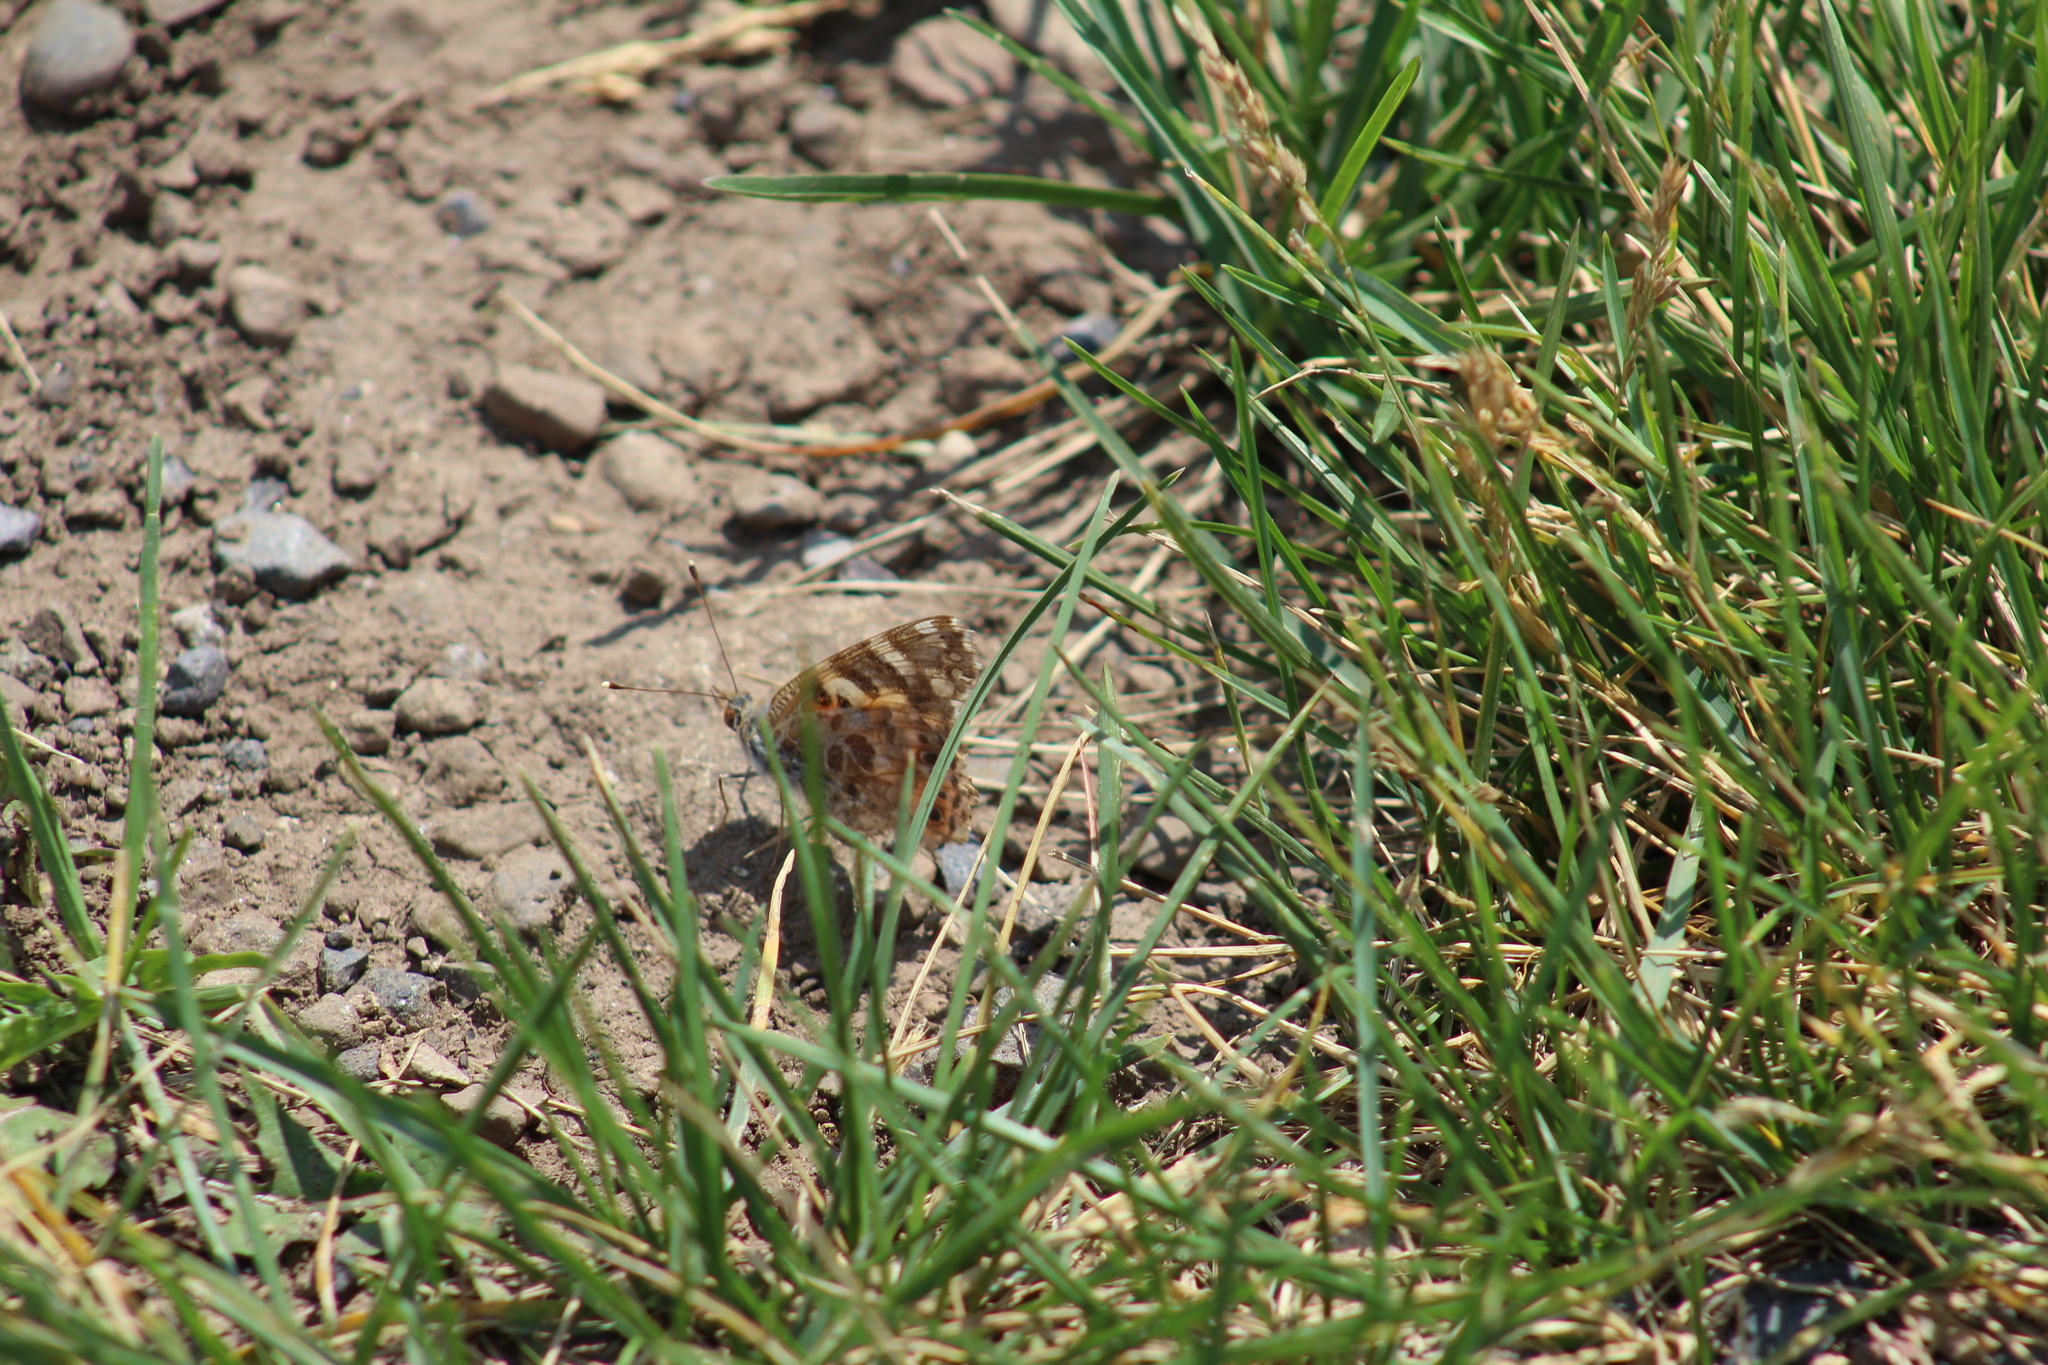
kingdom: Animalia
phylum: Arthropoda
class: Insecta
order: Lepidoptera
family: Nymphalidae
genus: Vanessa
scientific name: Vanessa cardui
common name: Painted lady
